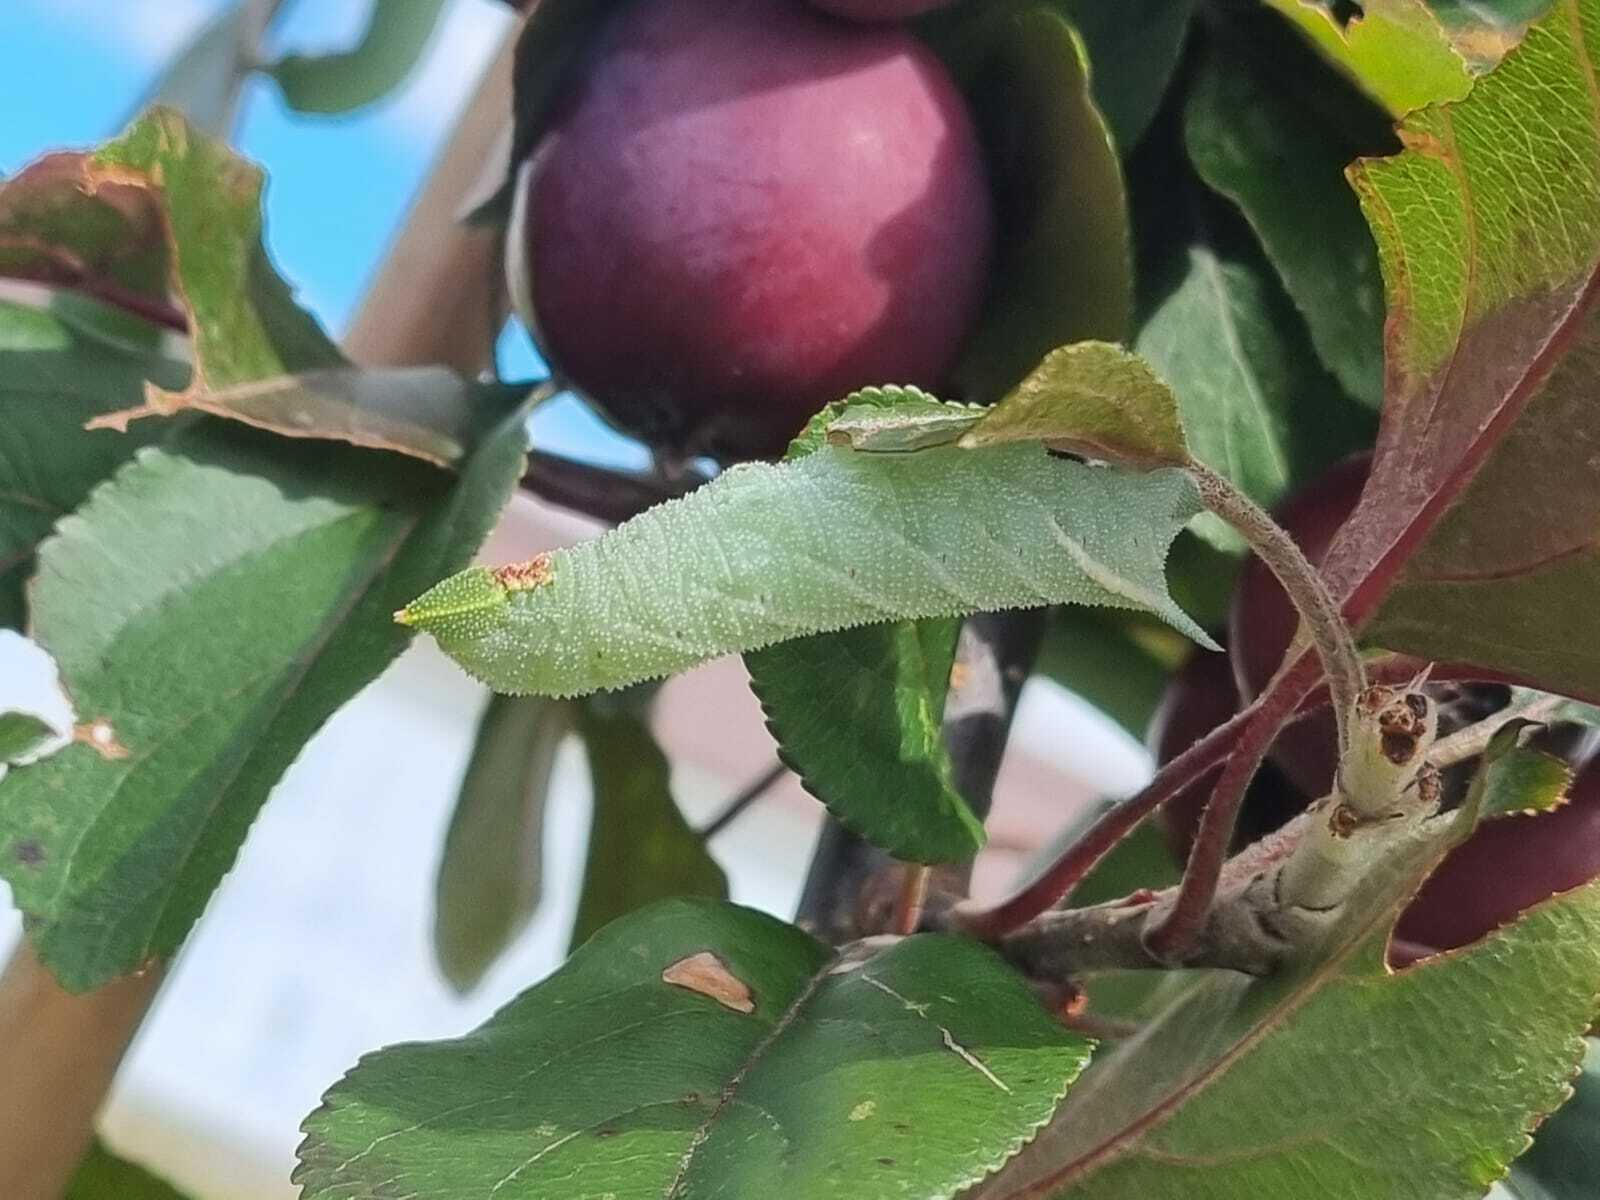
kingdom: Animalia
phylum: Arthropoda
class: Insecta
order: Lepidoptera
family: Sphingidae
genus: Smerinthus
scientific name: Smerinthus ocellata
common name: Eyed hawk-moth
